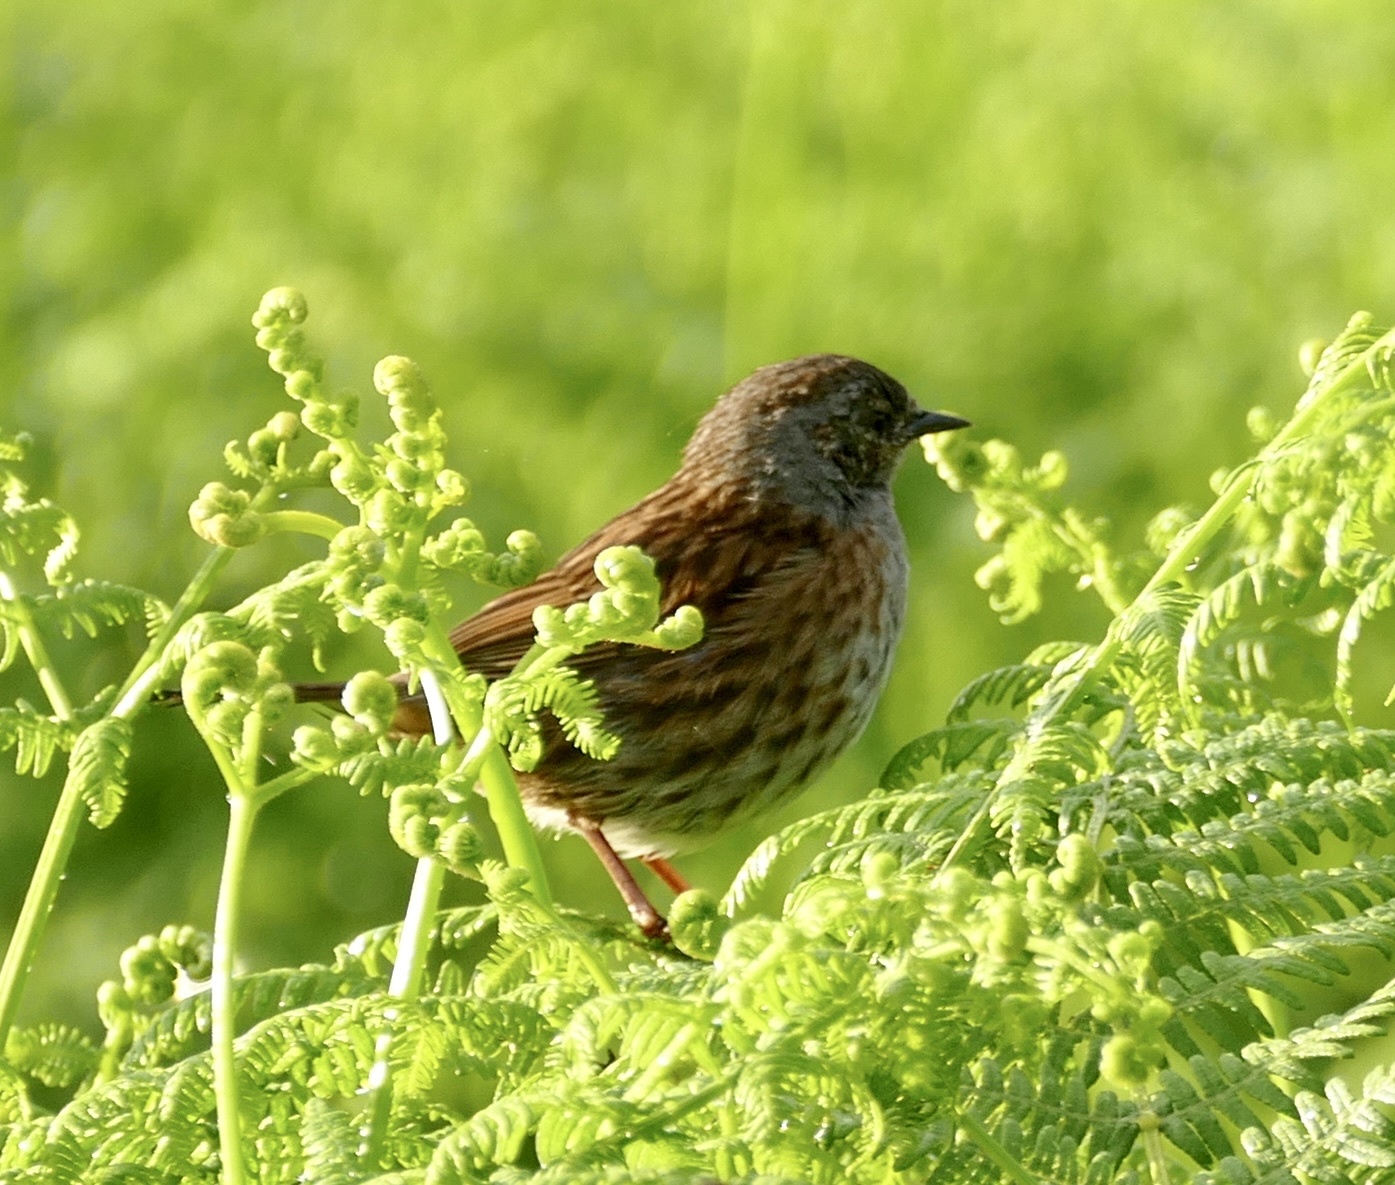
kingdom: Animalia
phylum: Chordata
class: Aves
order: Passeriformes
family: Prunellidae
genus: Prunella
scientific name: Prunella modularis
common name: Dunnock
